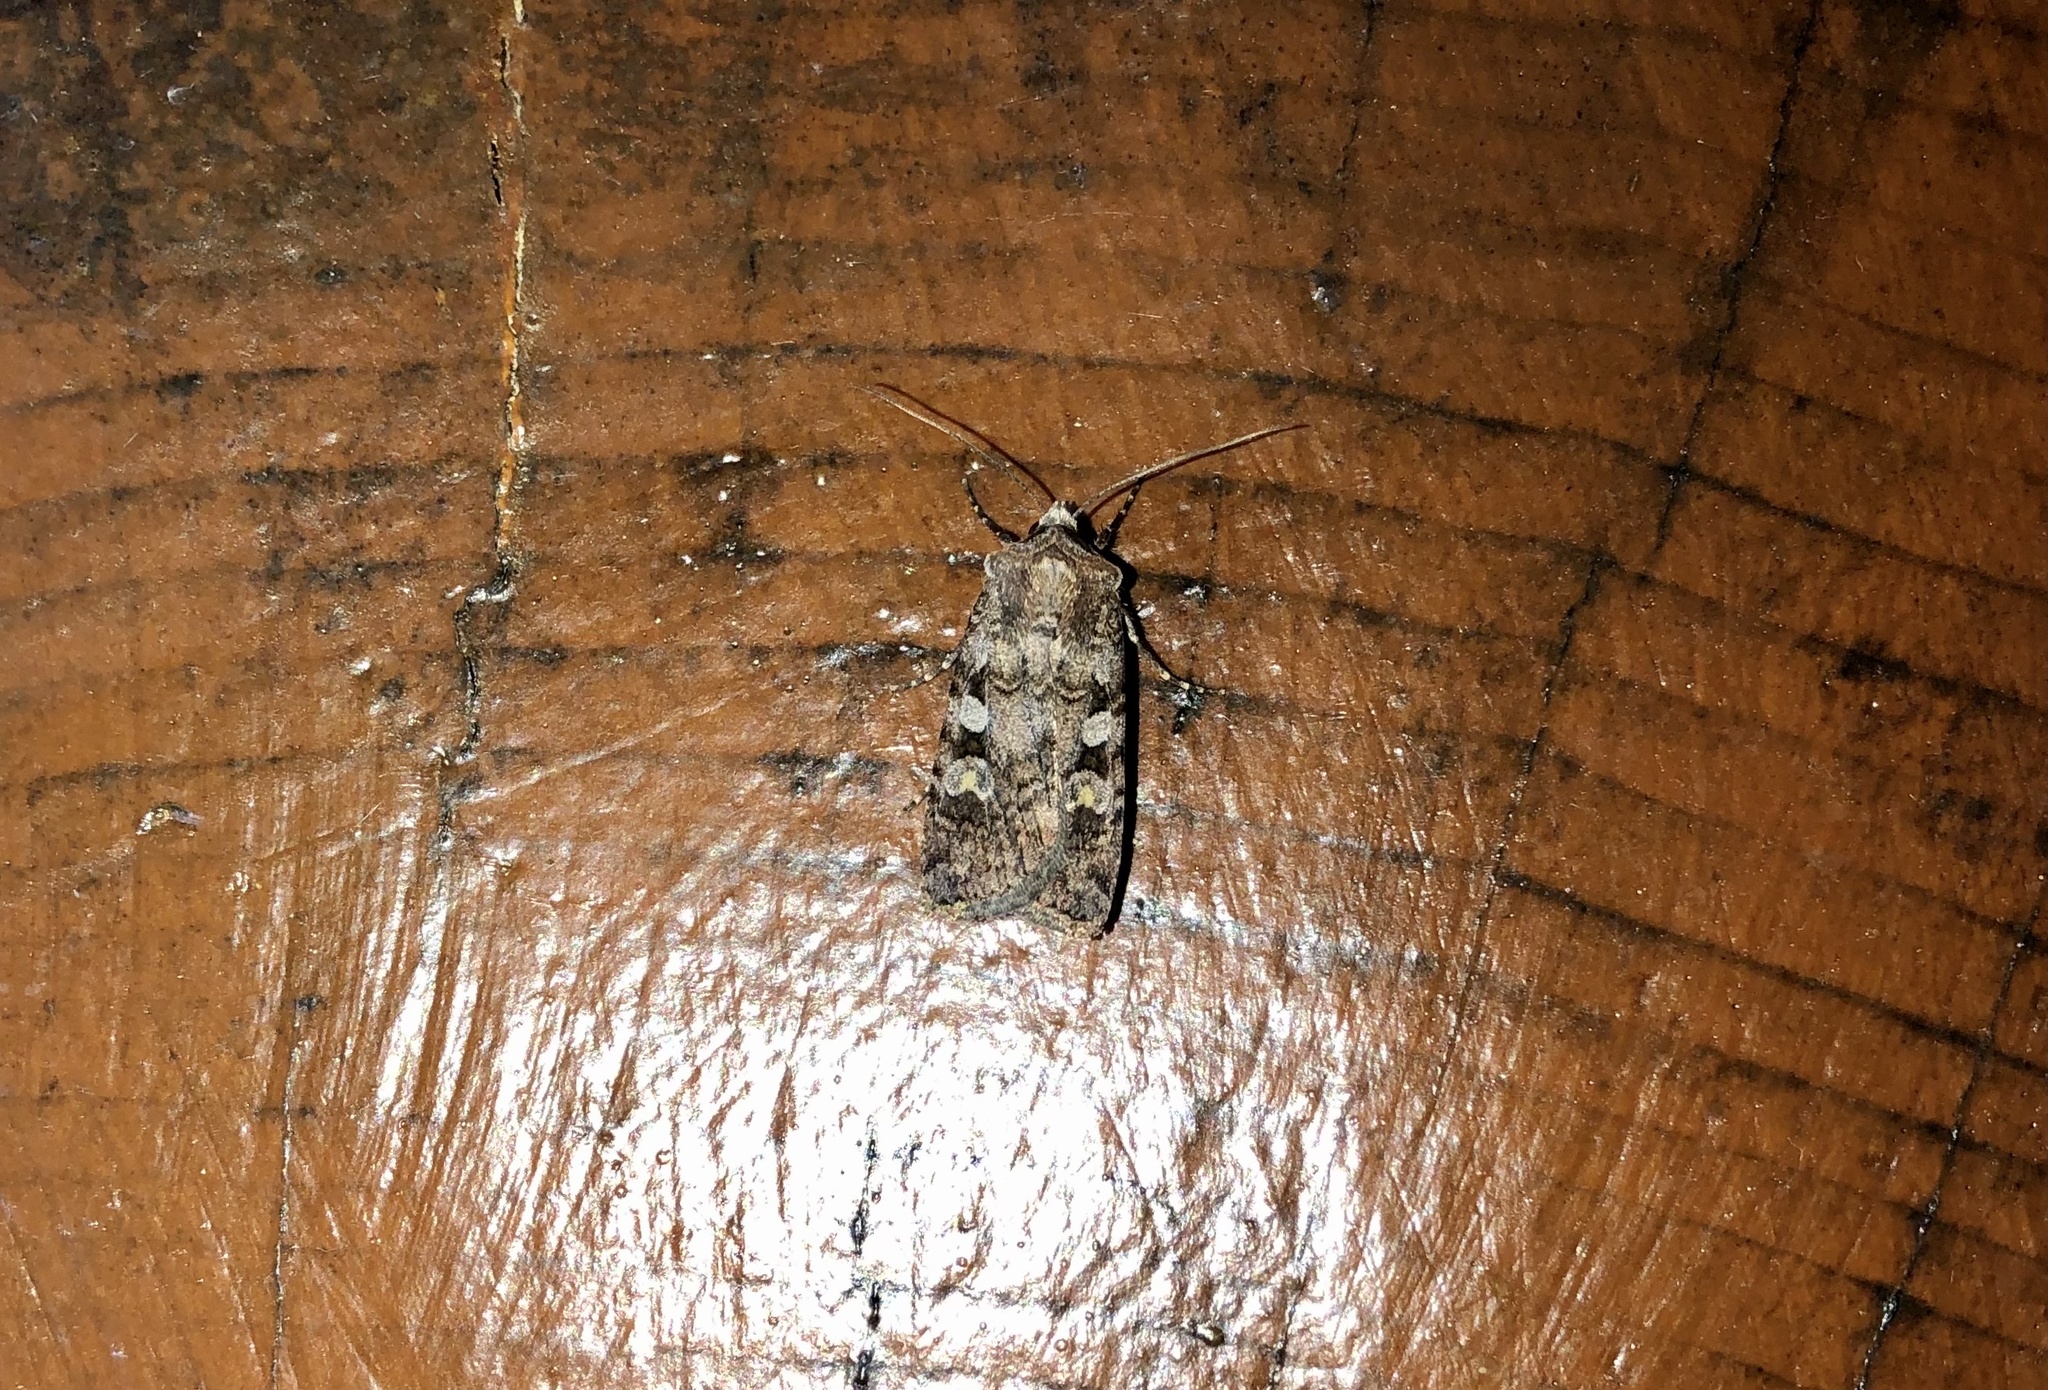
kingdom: Animalia
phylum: Arthropoda
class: Insecta
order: Lepidoptera
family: Noctuidae
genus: Euxoa
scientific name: Euxoa tessellata
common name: Striped cutworm
